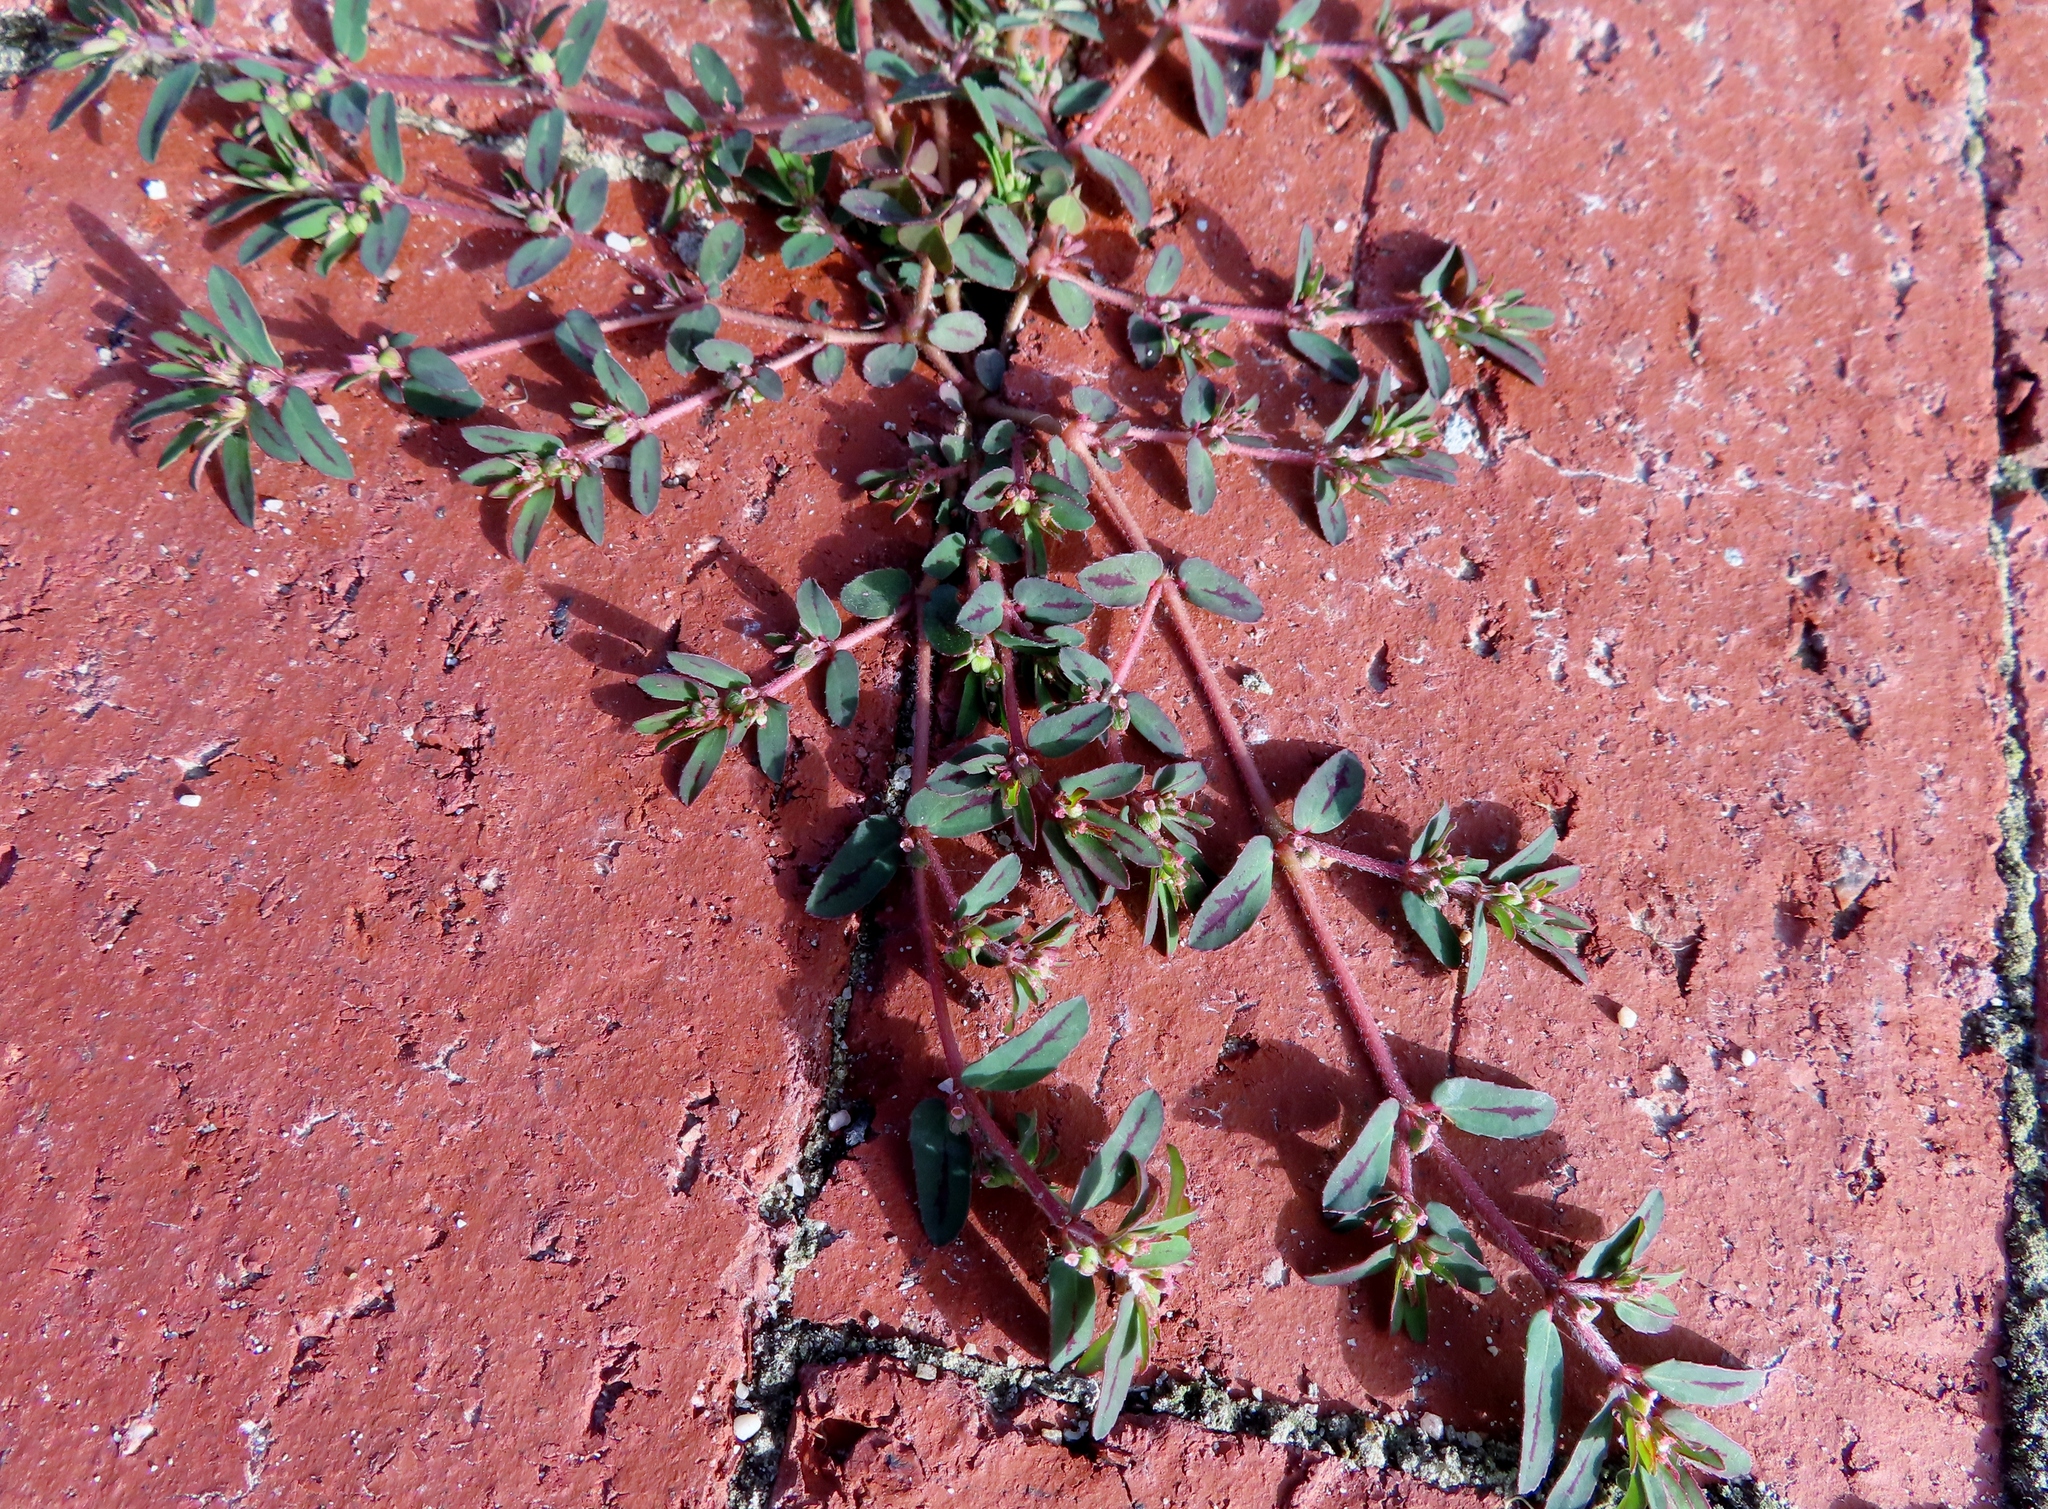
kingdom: Plantae
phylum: Tracheophyta
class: Magnoliopsida
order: Malpighiales
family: Euphorbiaceae
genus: Euphorbia
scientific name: Euphorbia maculata
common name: Spotted spurge
